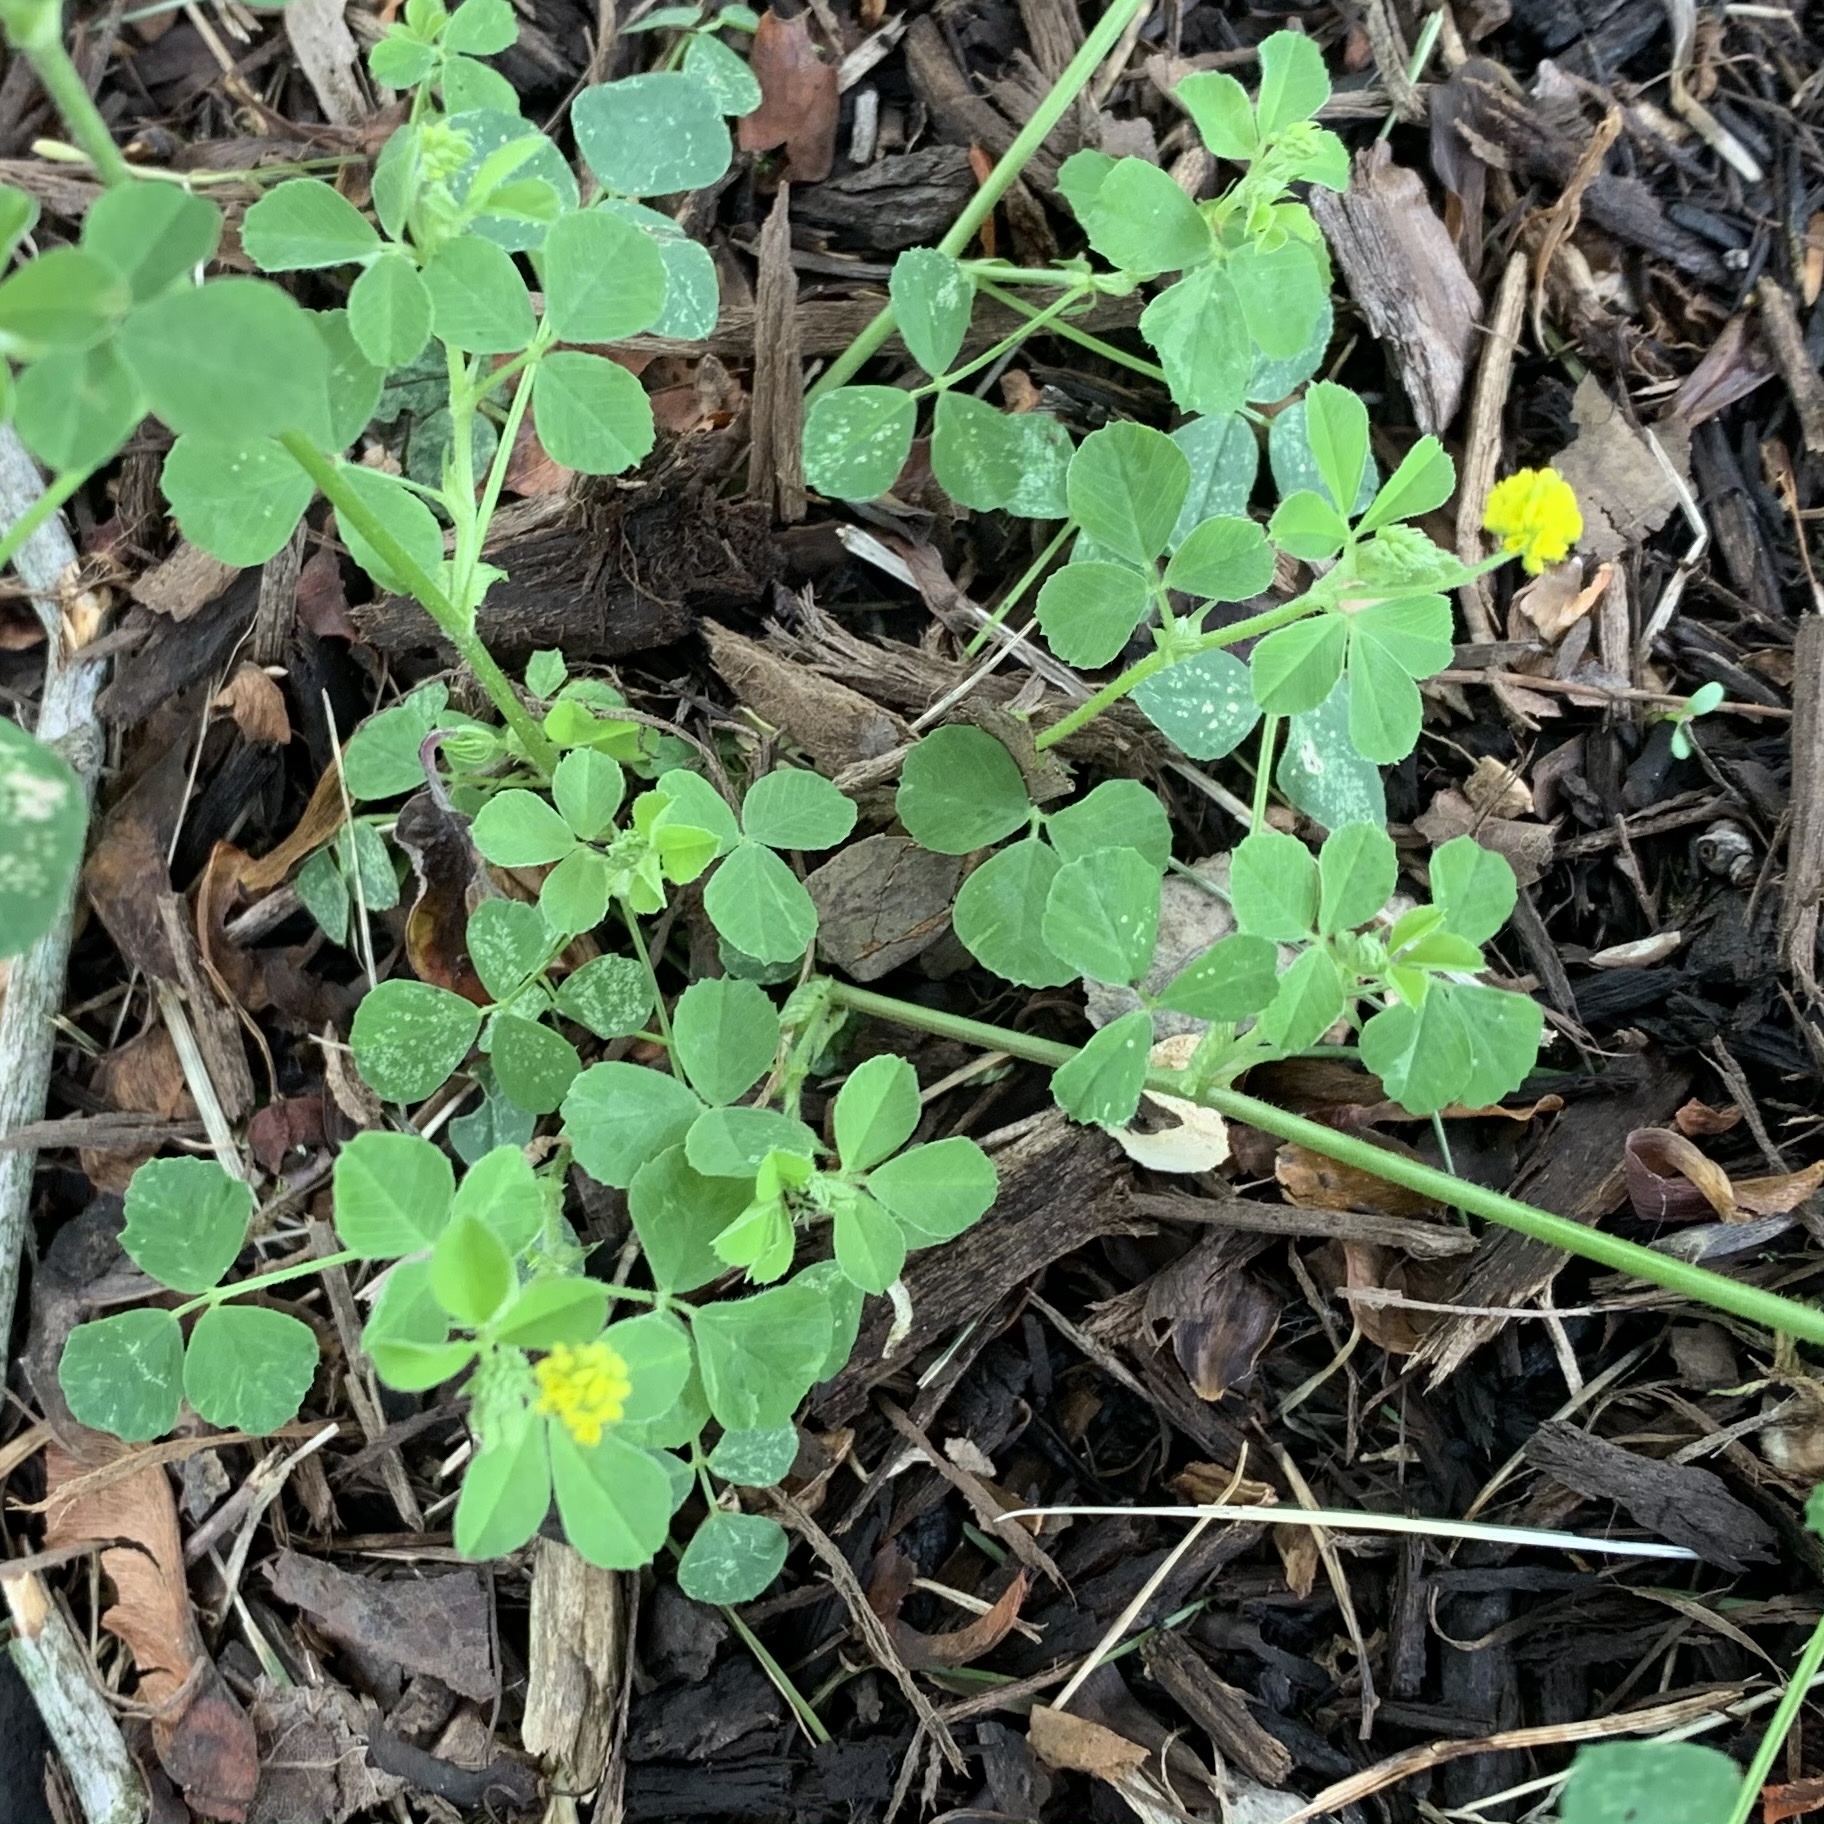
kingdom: Plantae
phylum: Tracheophyta
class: Magnoliopsida
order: Fabales
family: Fabaceae
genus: Medicago
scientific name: Medicago lupulina
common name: Black medick
